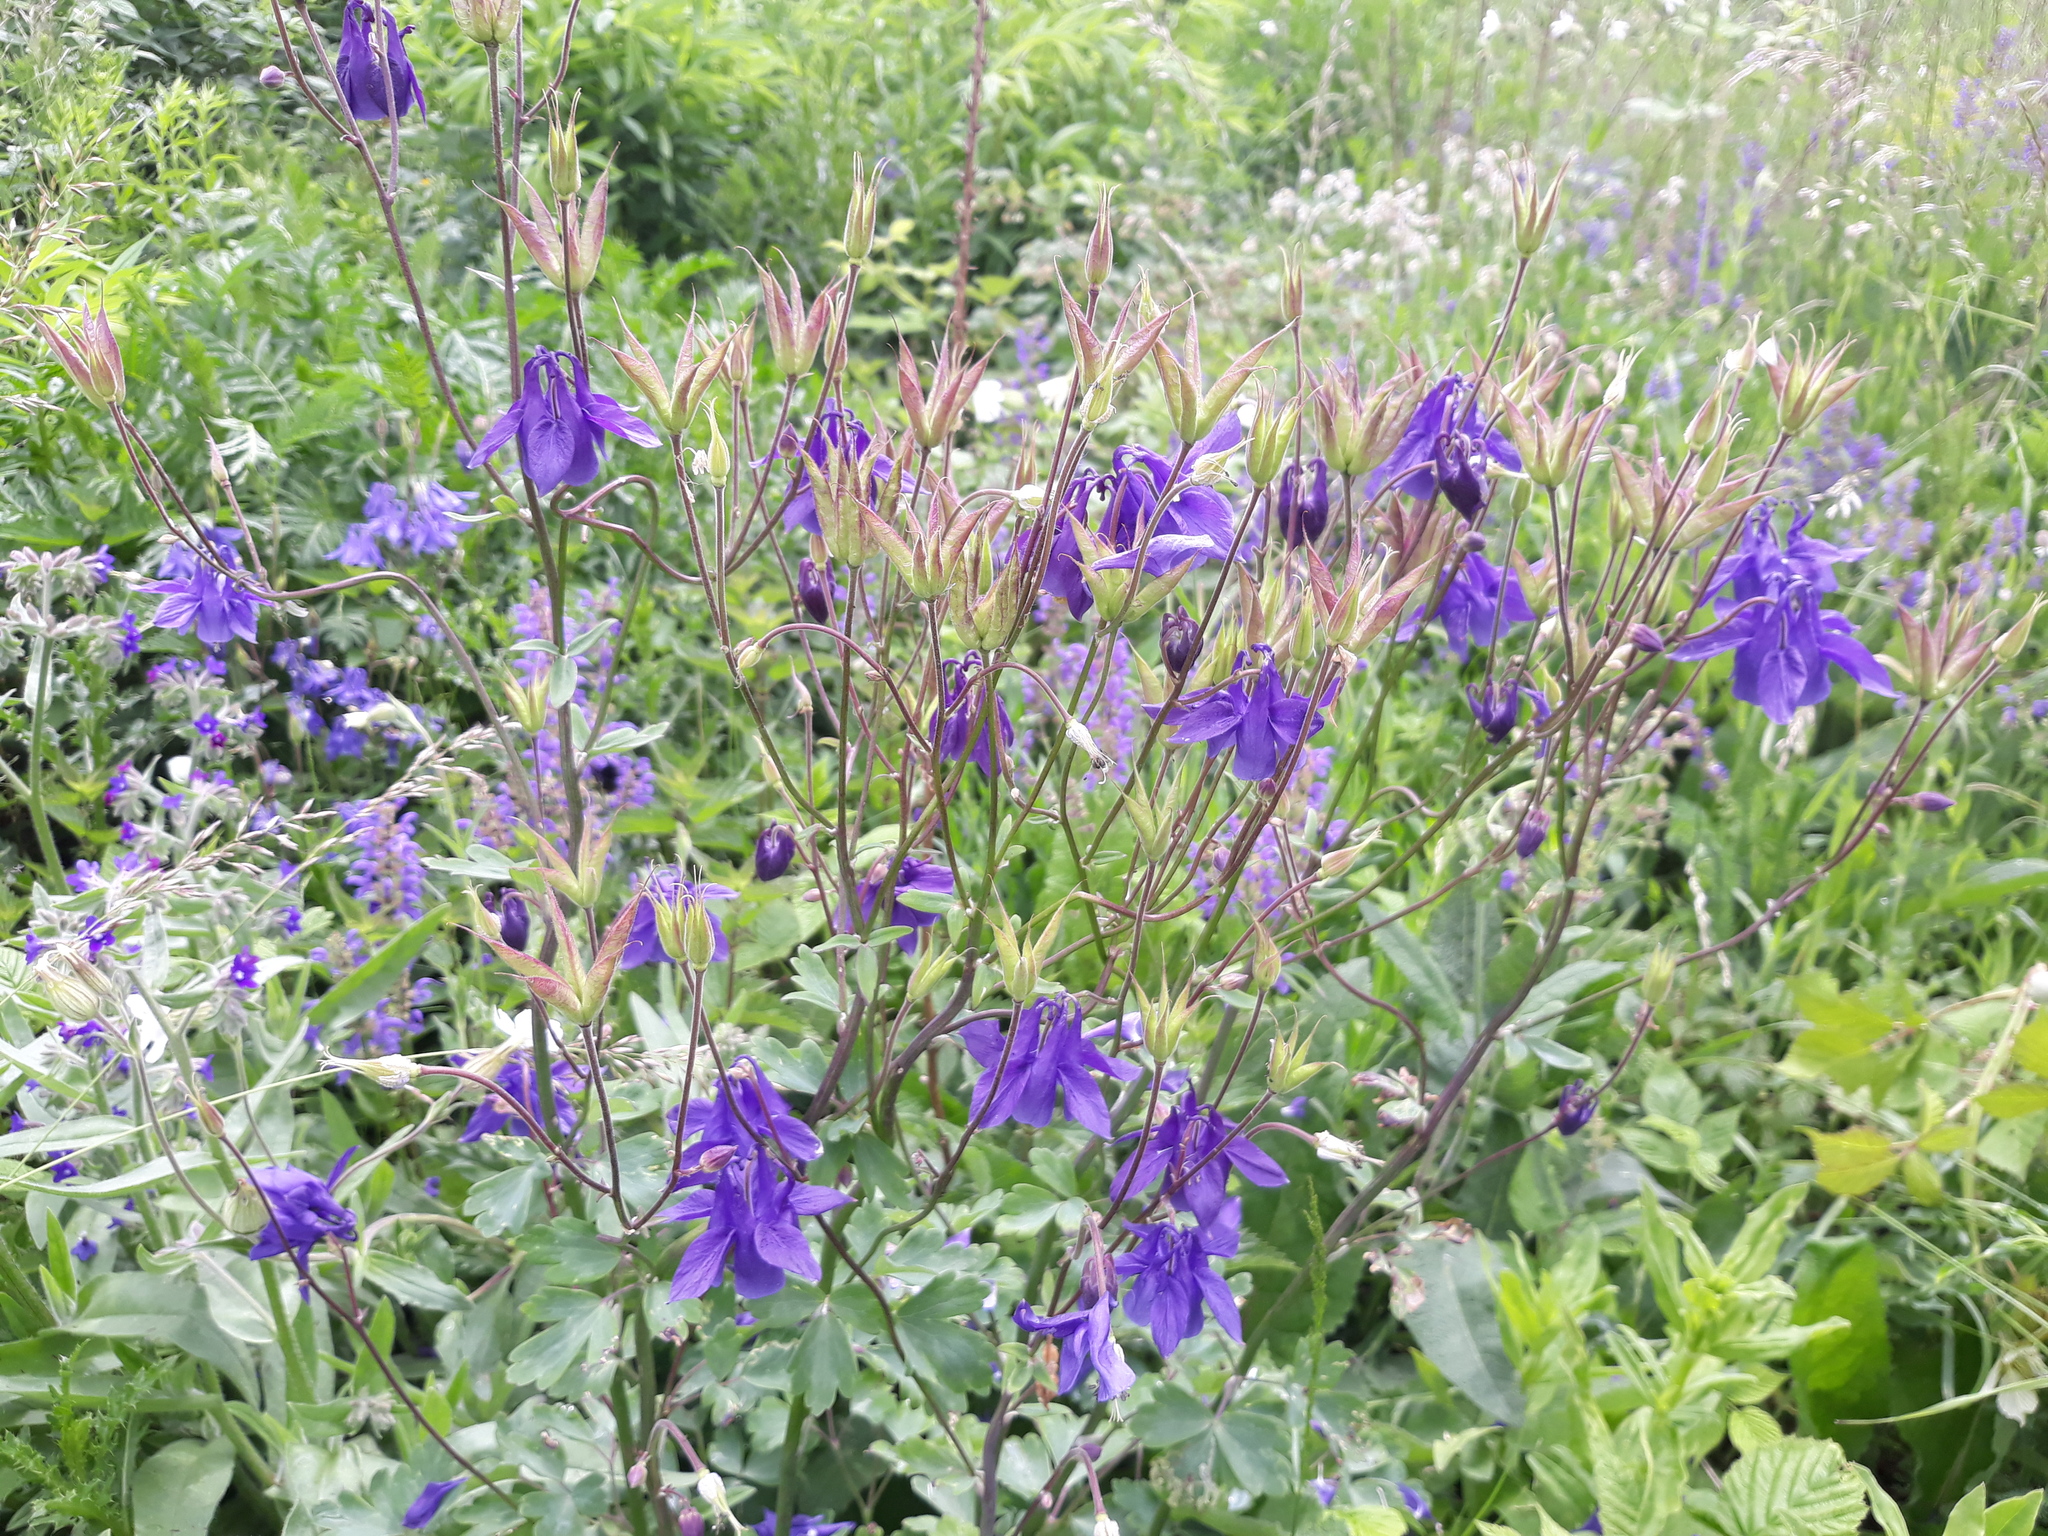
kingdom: Plantae
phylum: Tracheophyta
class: Magnoliopsida
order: Ranunculales
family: Ranunculaceae
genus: Aquilegia
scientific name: Aquilegia vulgaris
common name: Columbine
